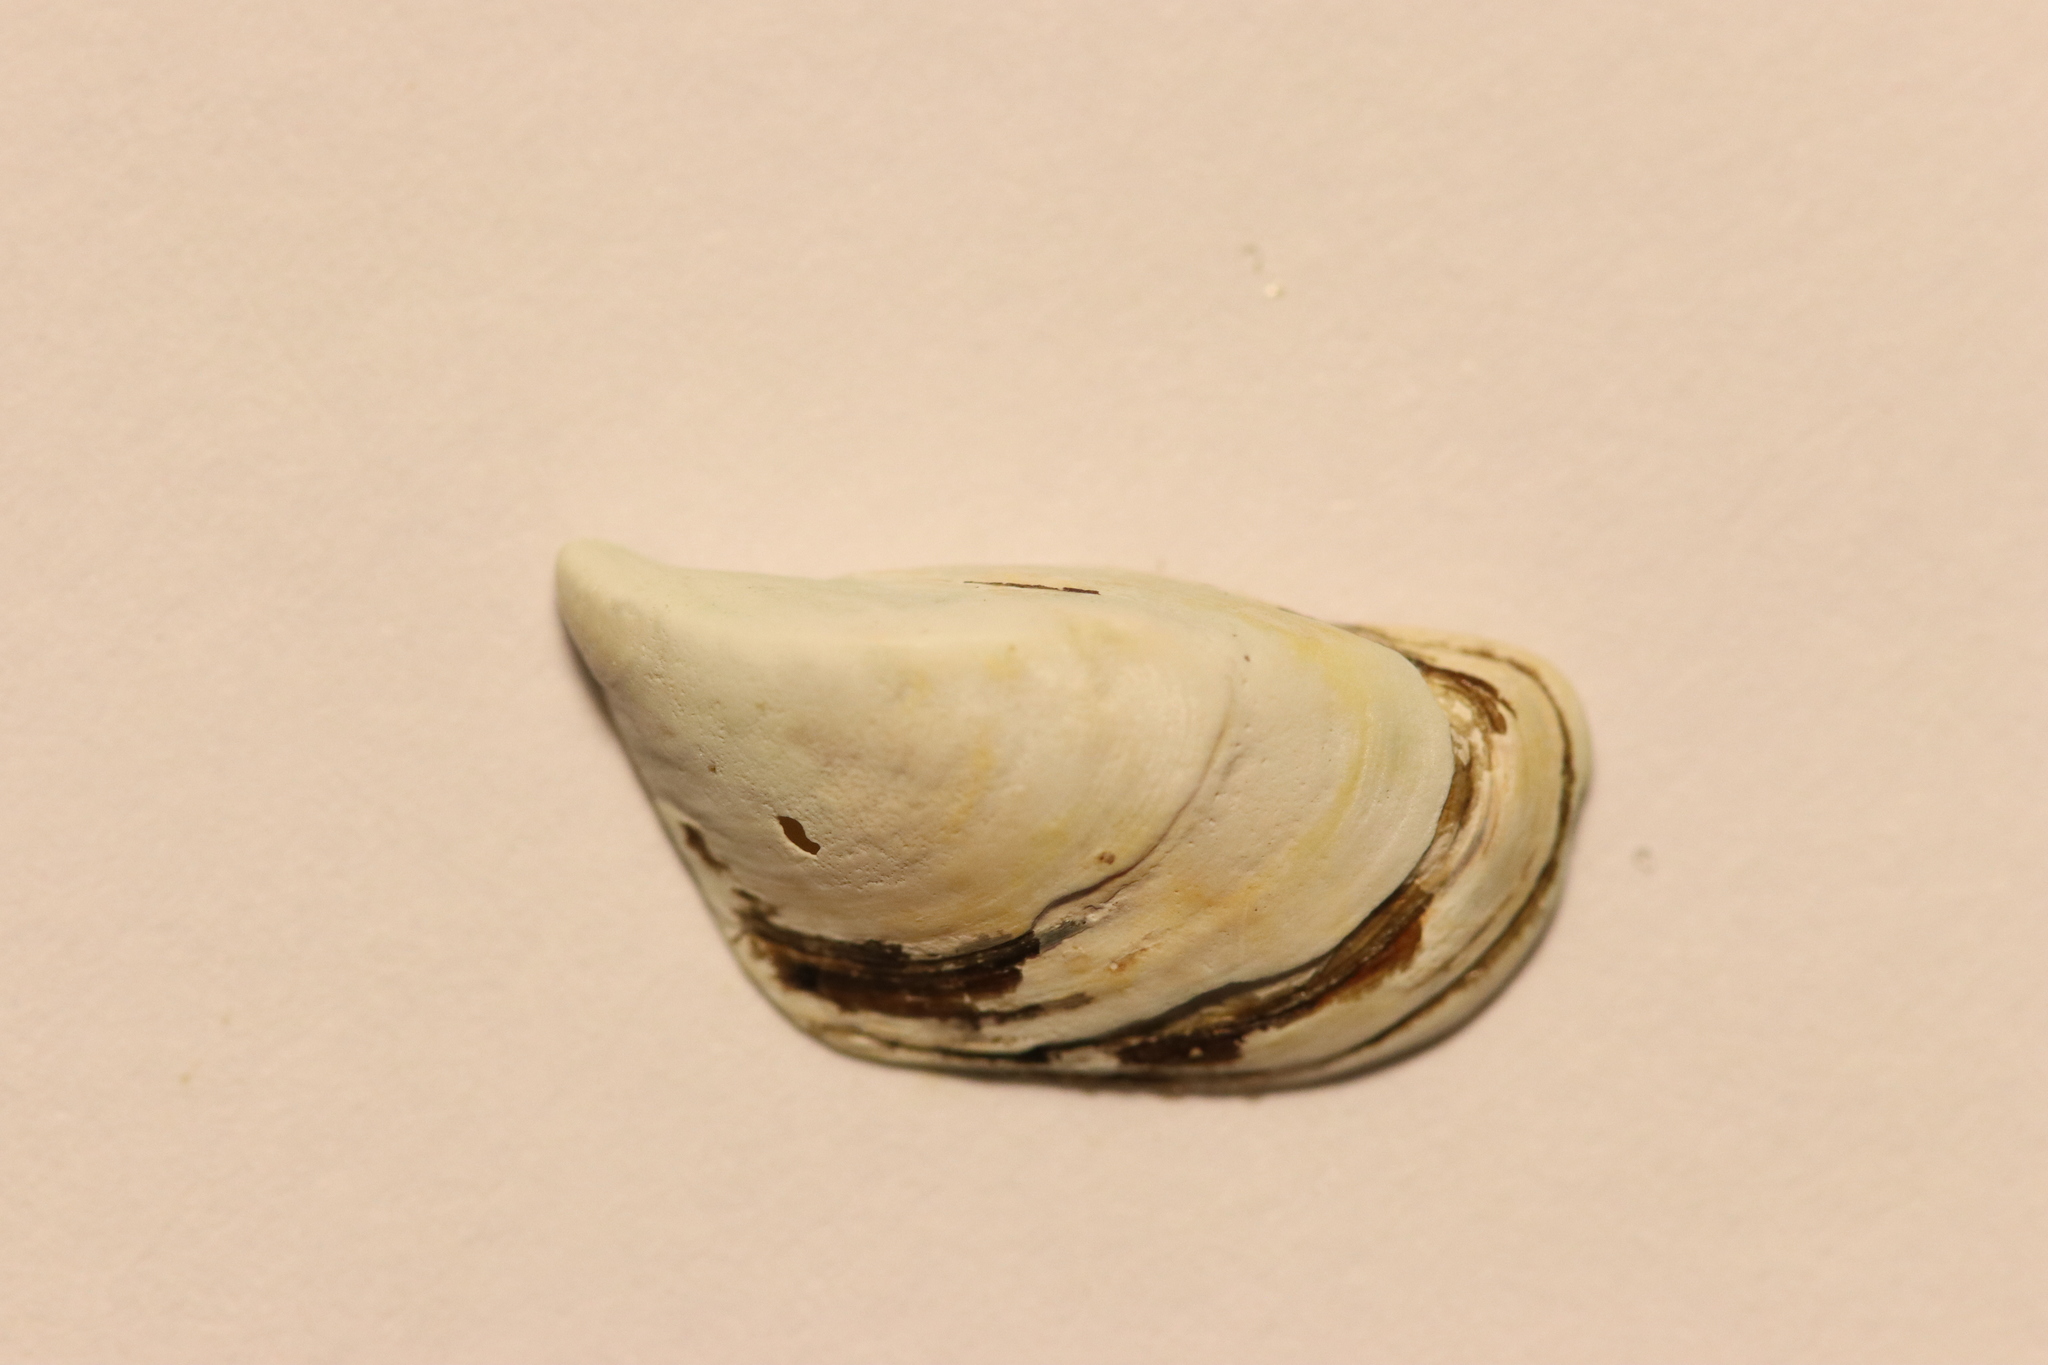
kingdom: Animalia
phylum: Mollusca
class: Bivalvia
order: Myida
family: Dreissenidae
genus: Dreissena
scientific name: Dreissena polymorpha
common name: Zebra mussel
